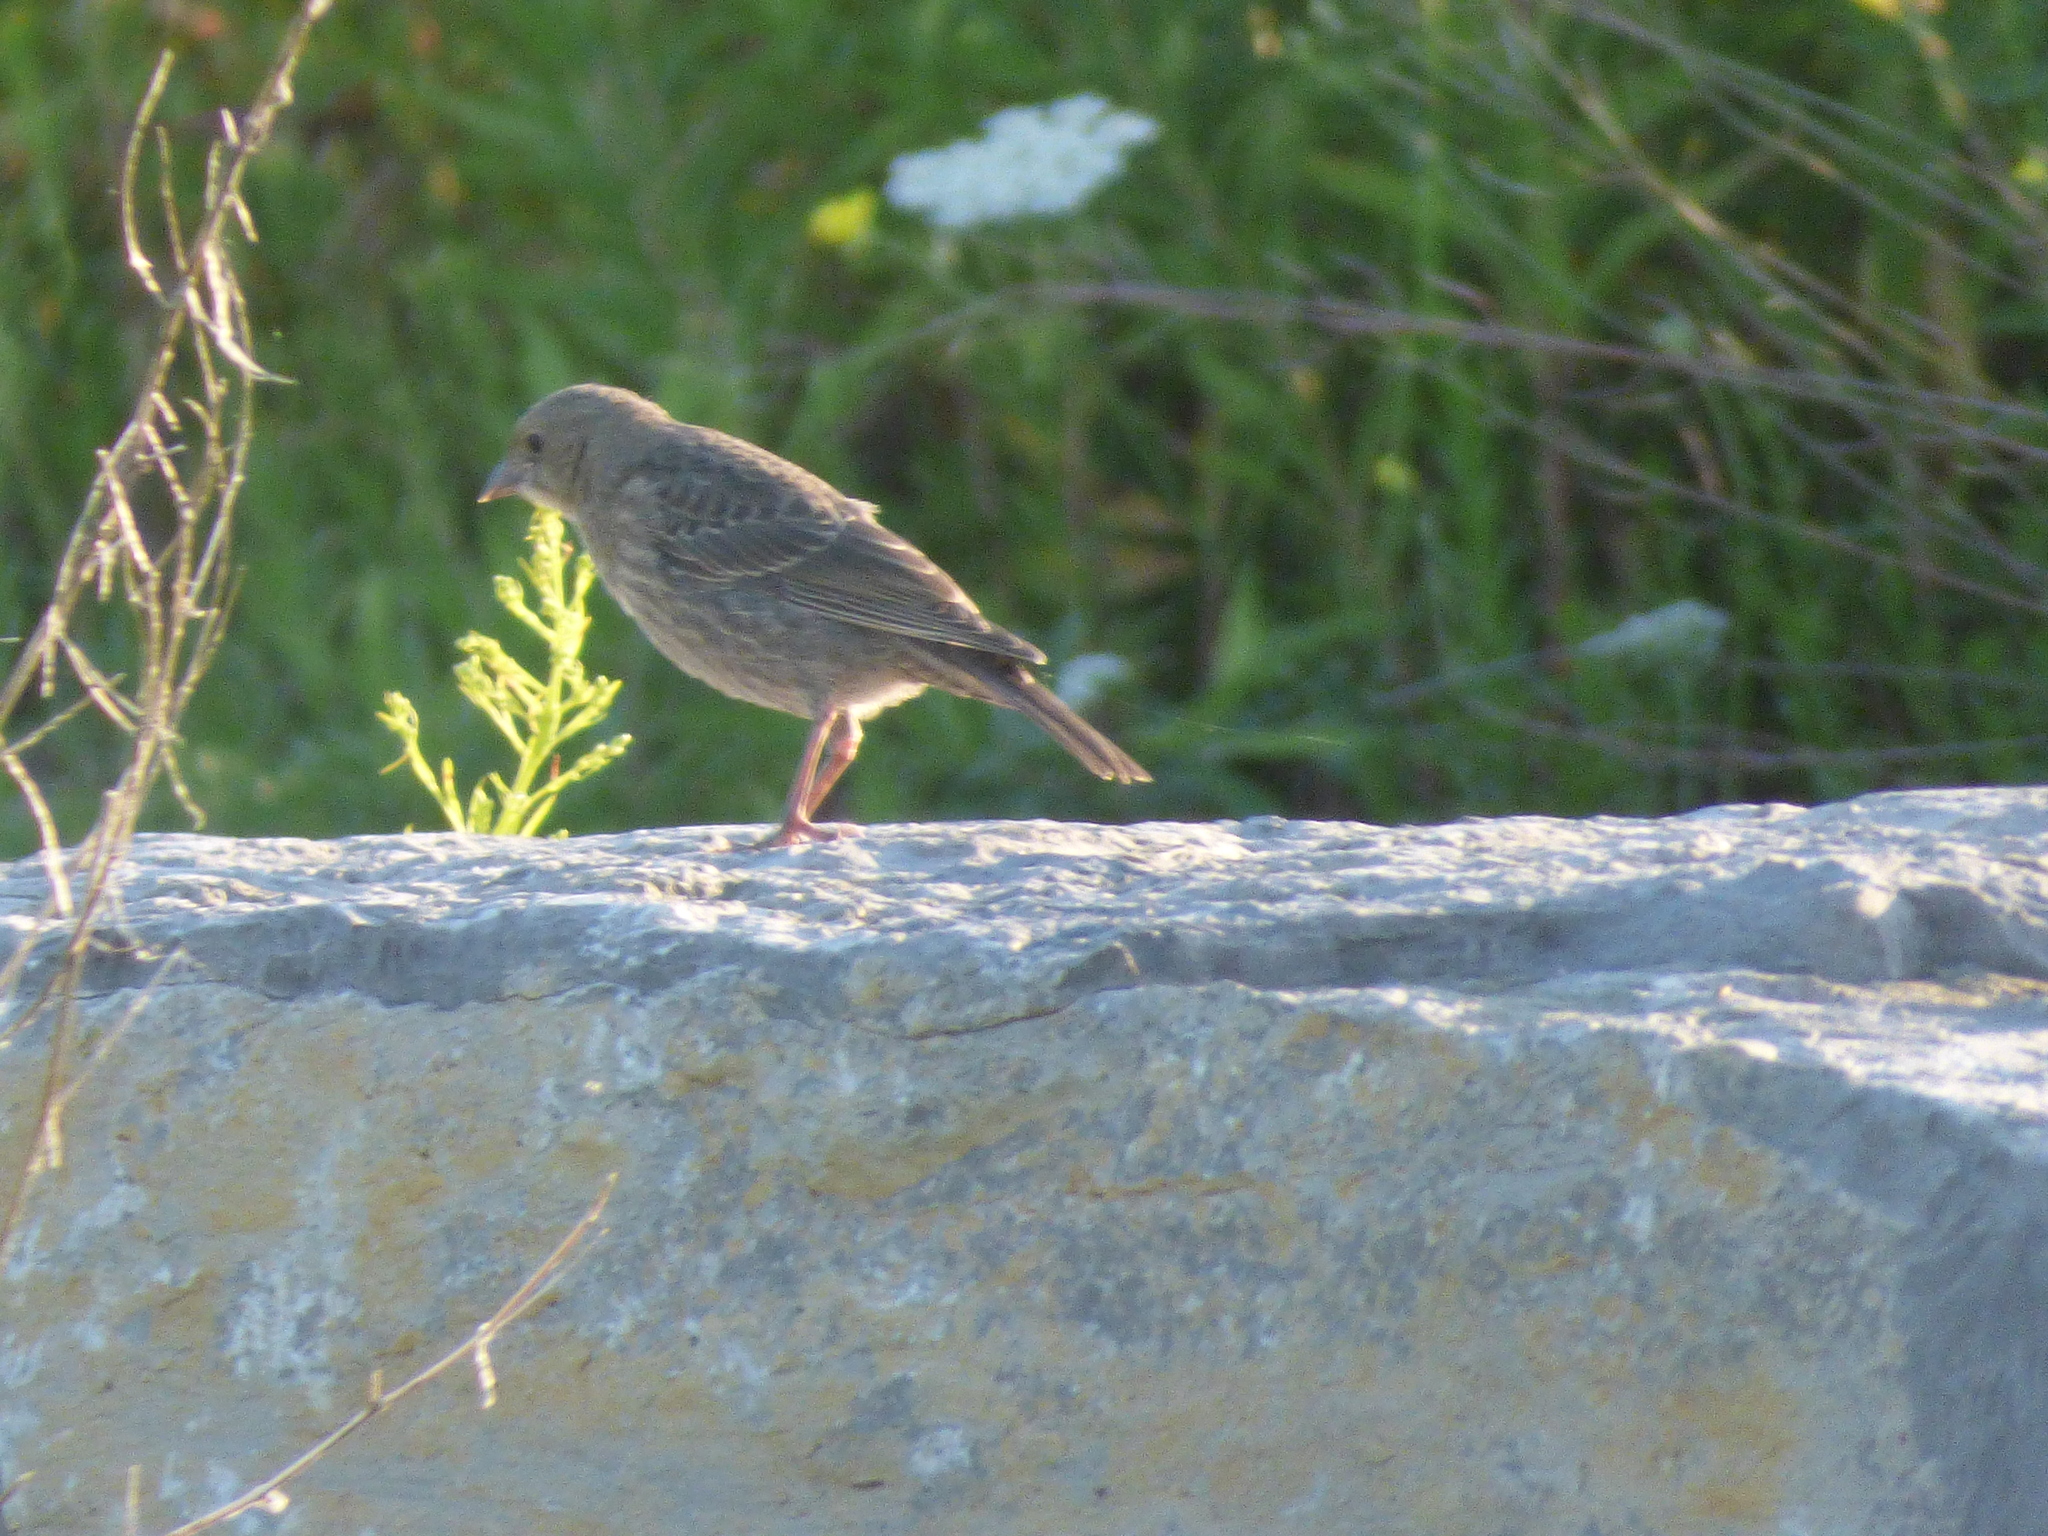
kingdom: Animalia
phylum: Chordata
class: Aves
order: Passeriformes
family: Icteridae
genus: Molothrus
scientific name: Molothrus ater
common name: Brown-headed cowbird
